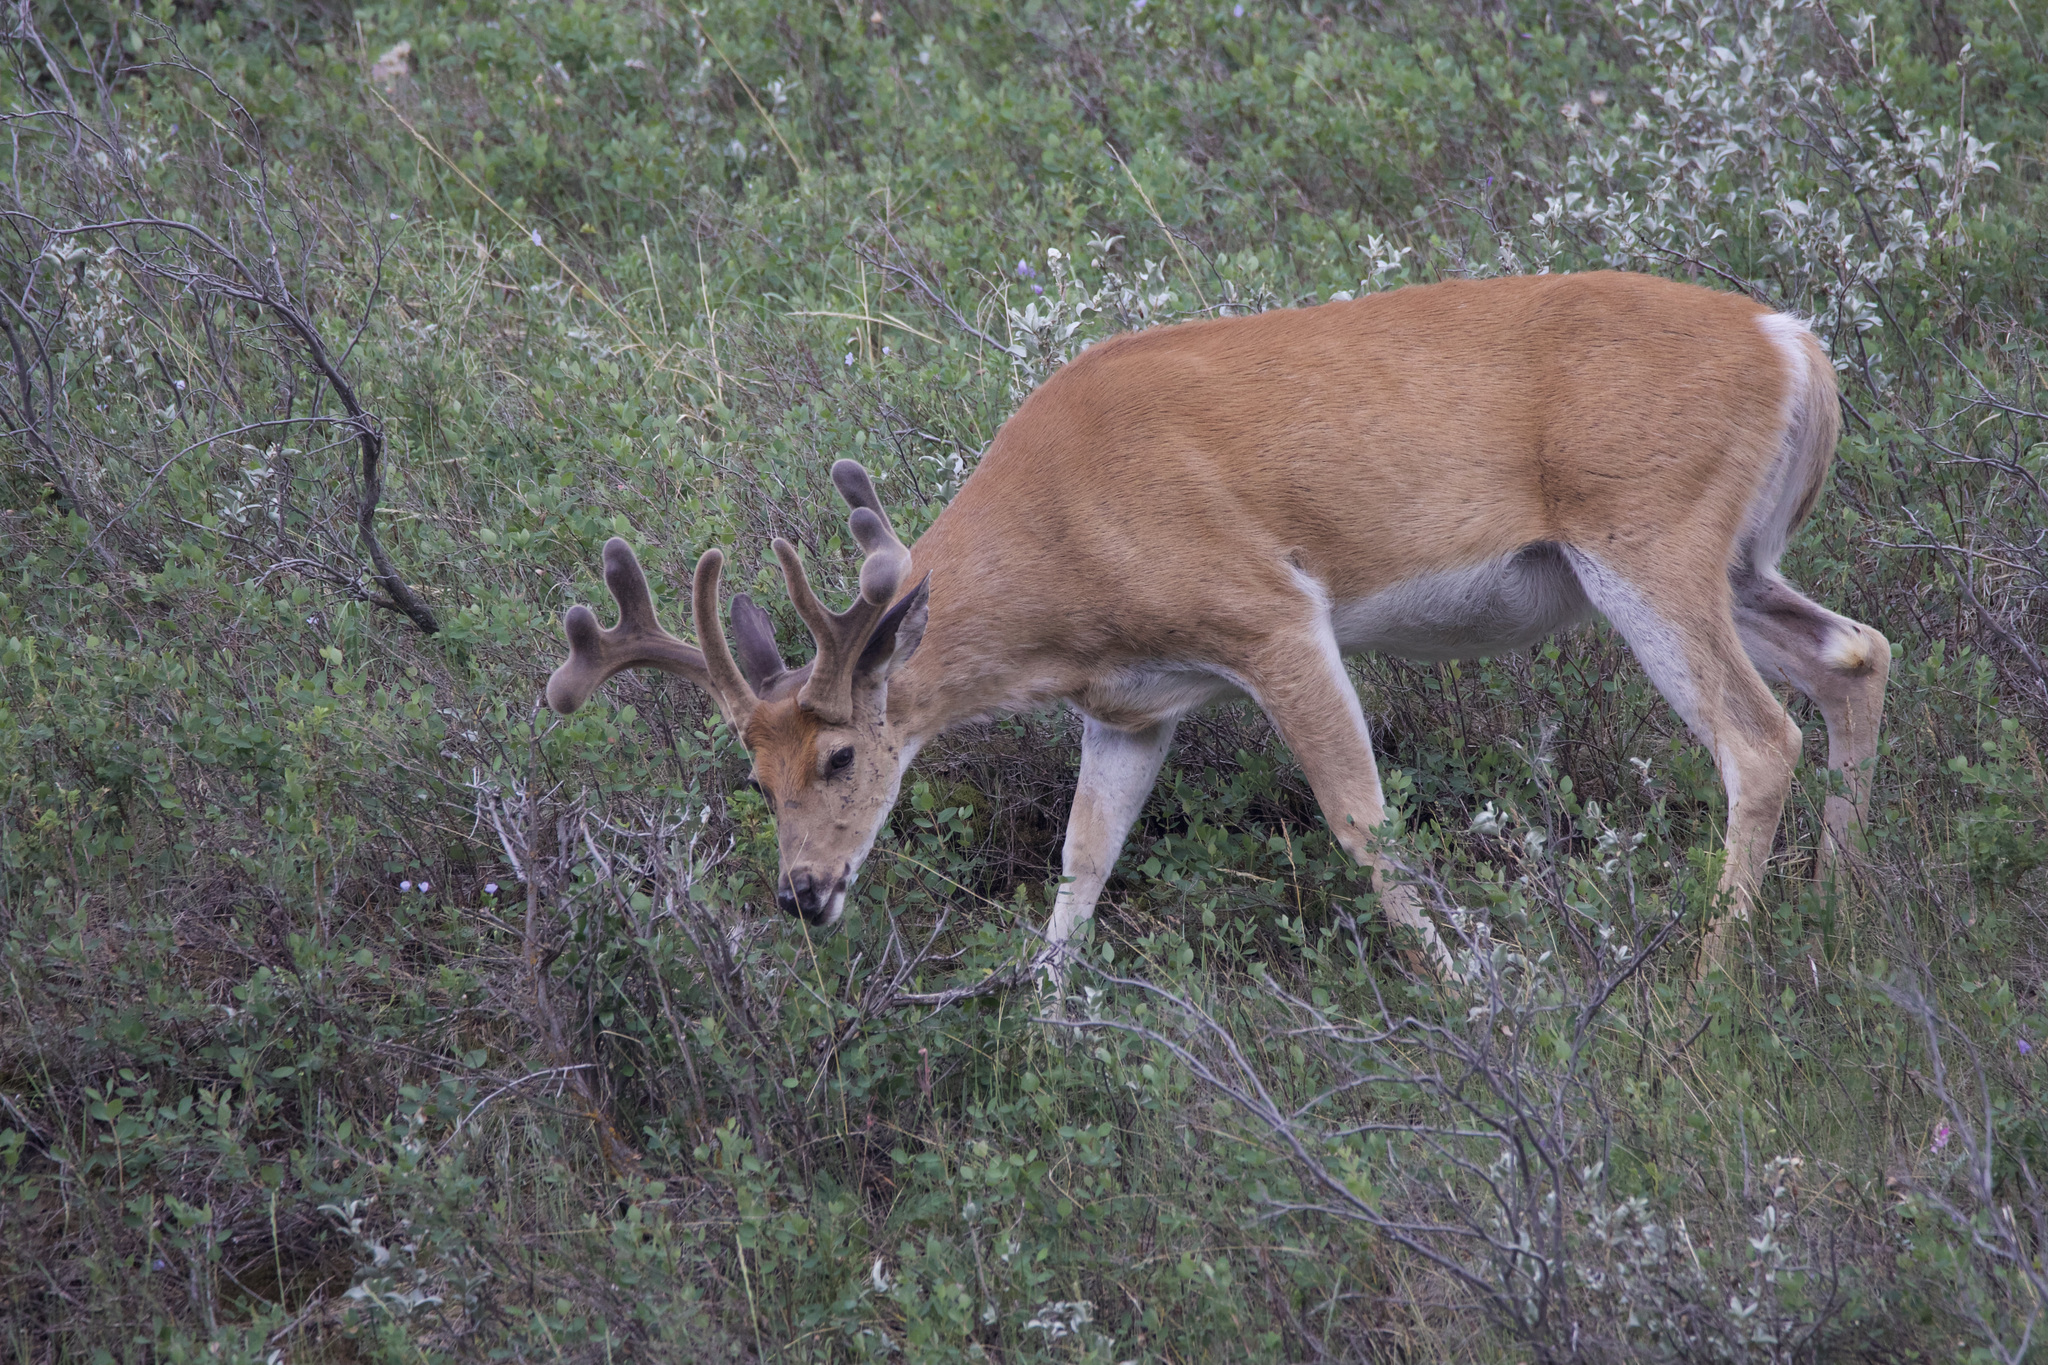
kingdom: Animalia
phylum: Chordata
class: Mammalia
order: Artiodactyla
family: Cervidae
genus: Odocoileus
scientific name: Odocoileus virginianus
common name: White-tailed deer
